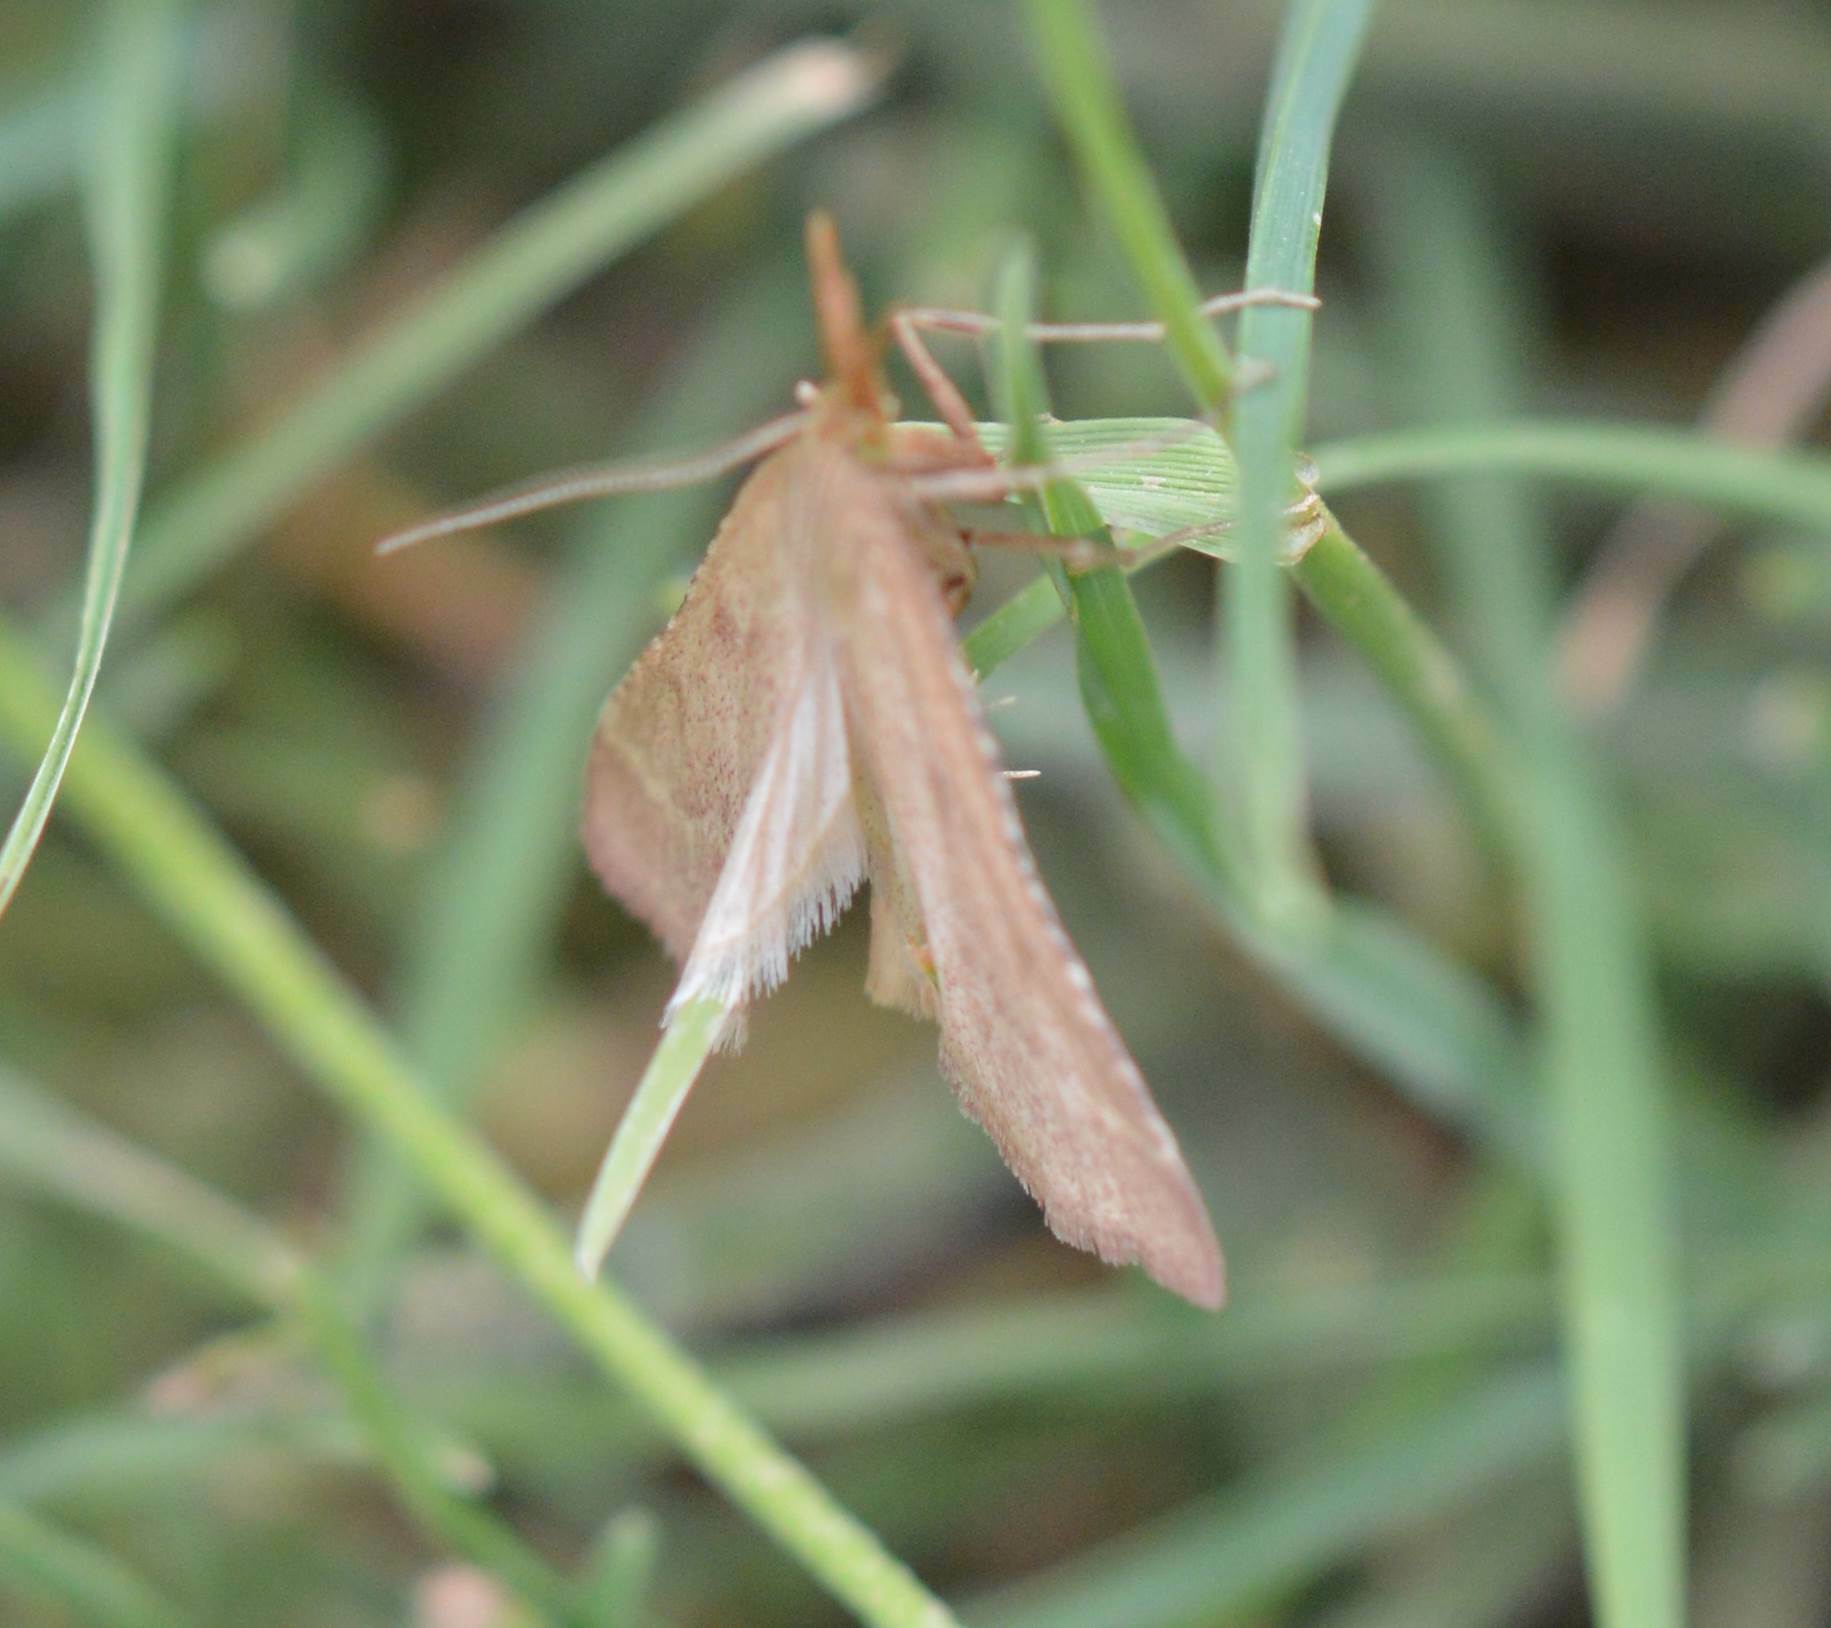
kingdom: Animalia
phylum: Arthropoda
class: Insecta
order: Lepidoptera
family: Pyralidae
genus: Synaphe
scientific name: Synaphe punctalis
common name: Long-legged tabby
